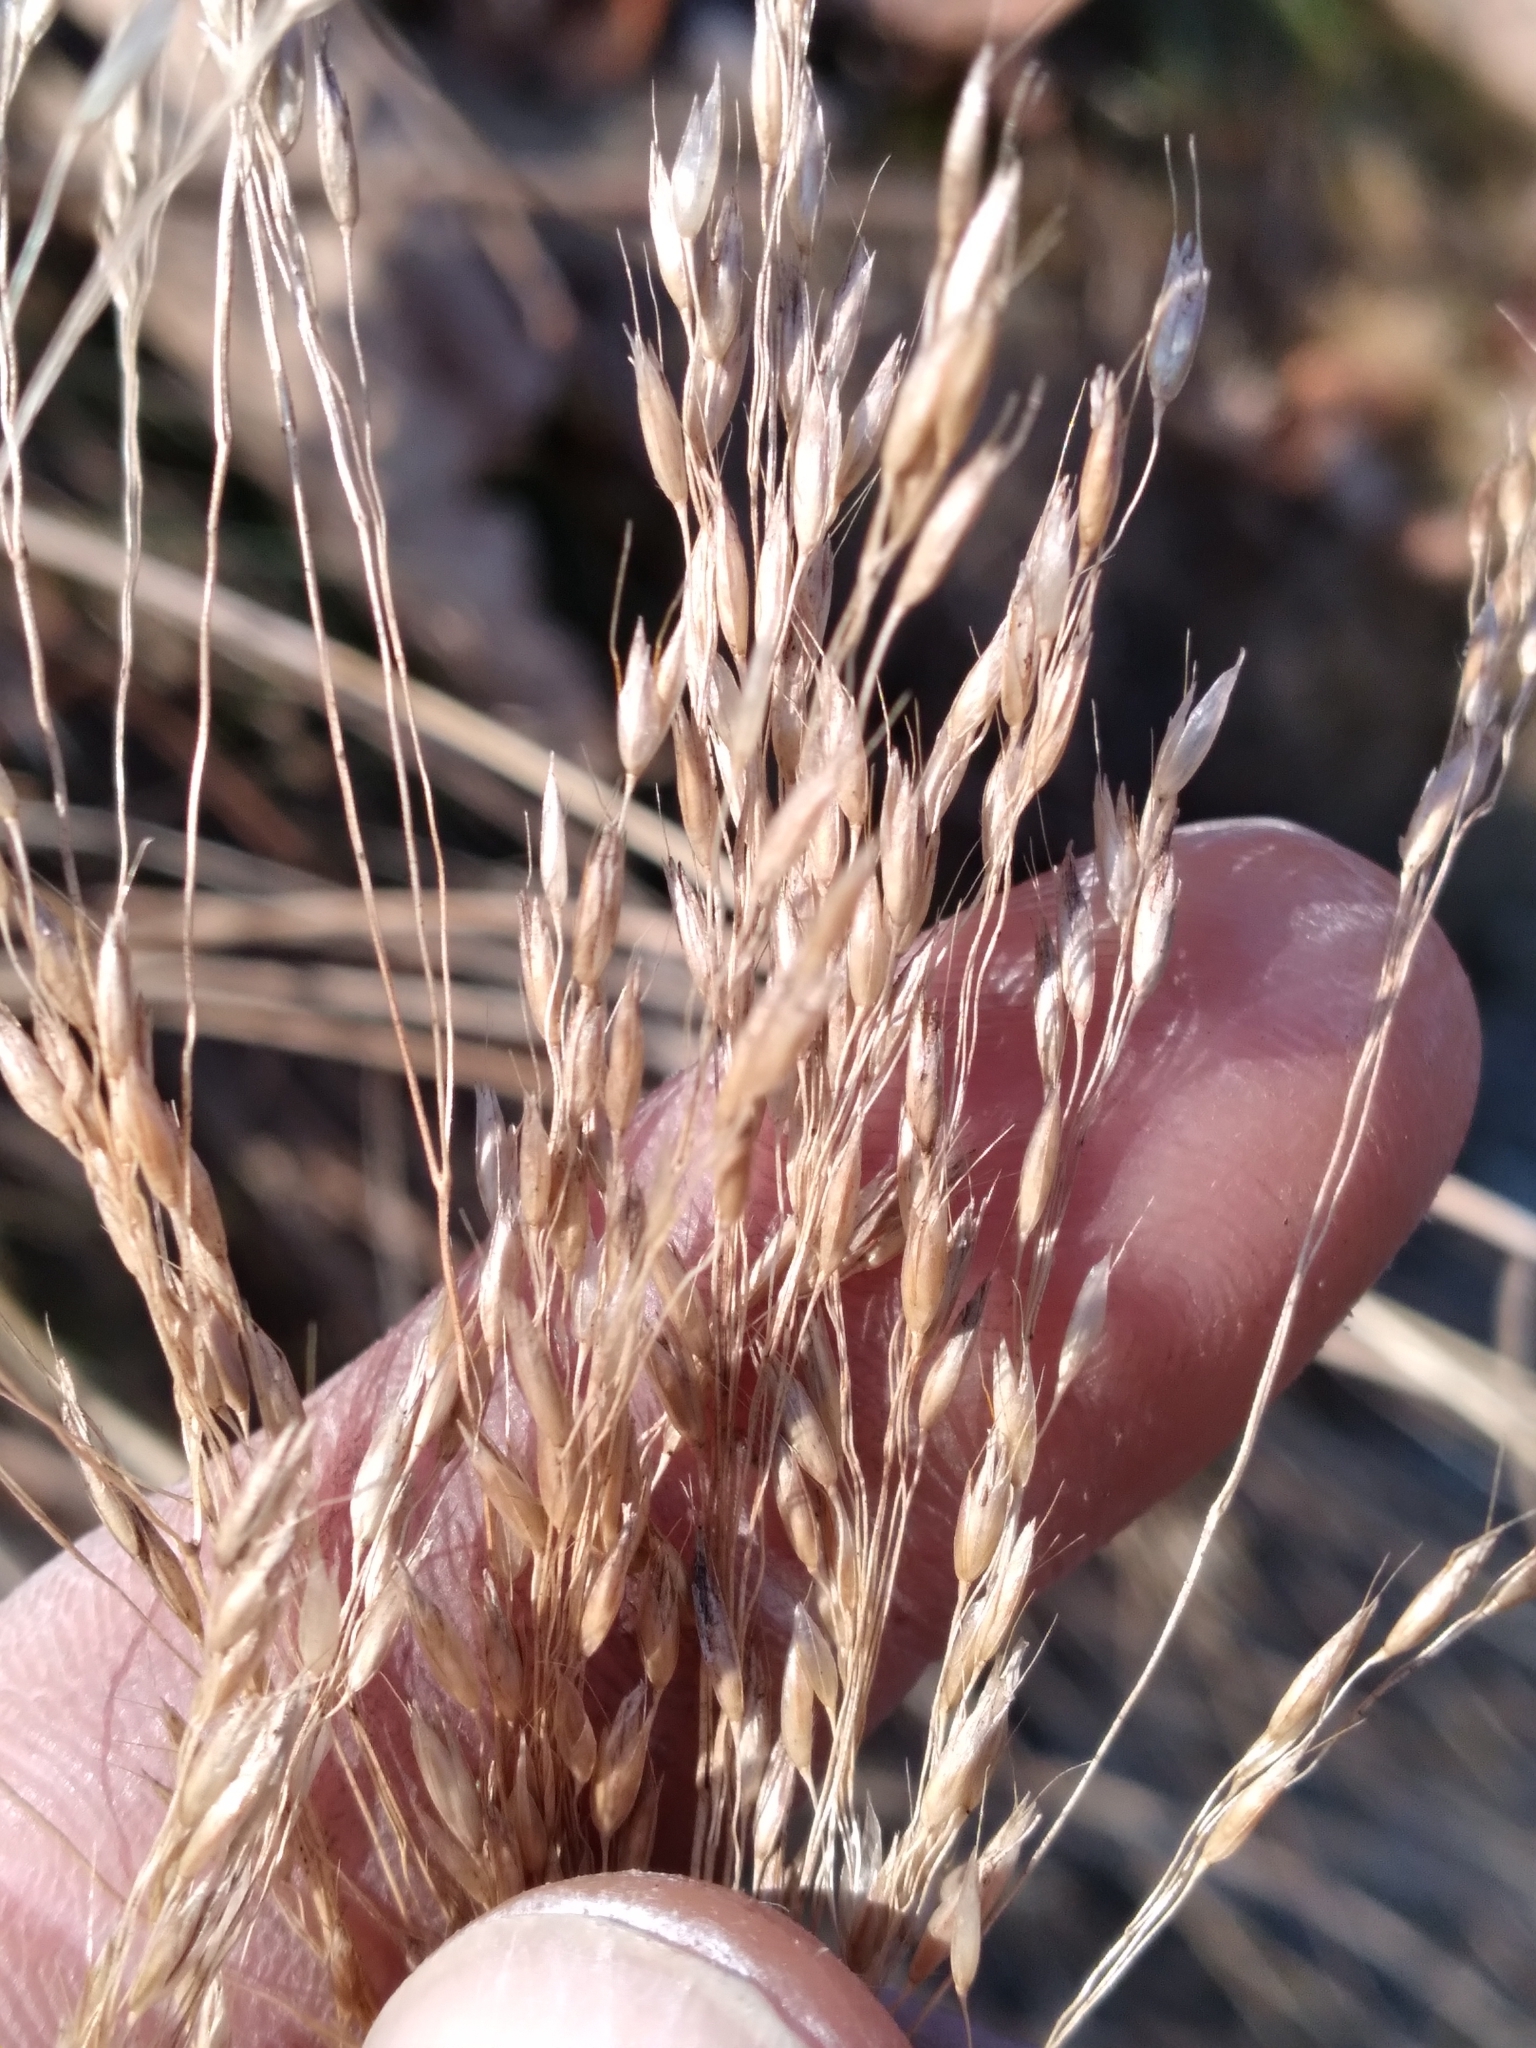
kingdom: Plantae
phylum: Tracheophyta
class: Liliopsida
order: Poales
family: Poaceae
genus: Avenella
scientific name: Avenella flexuosa
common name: Wavy hairgrass
